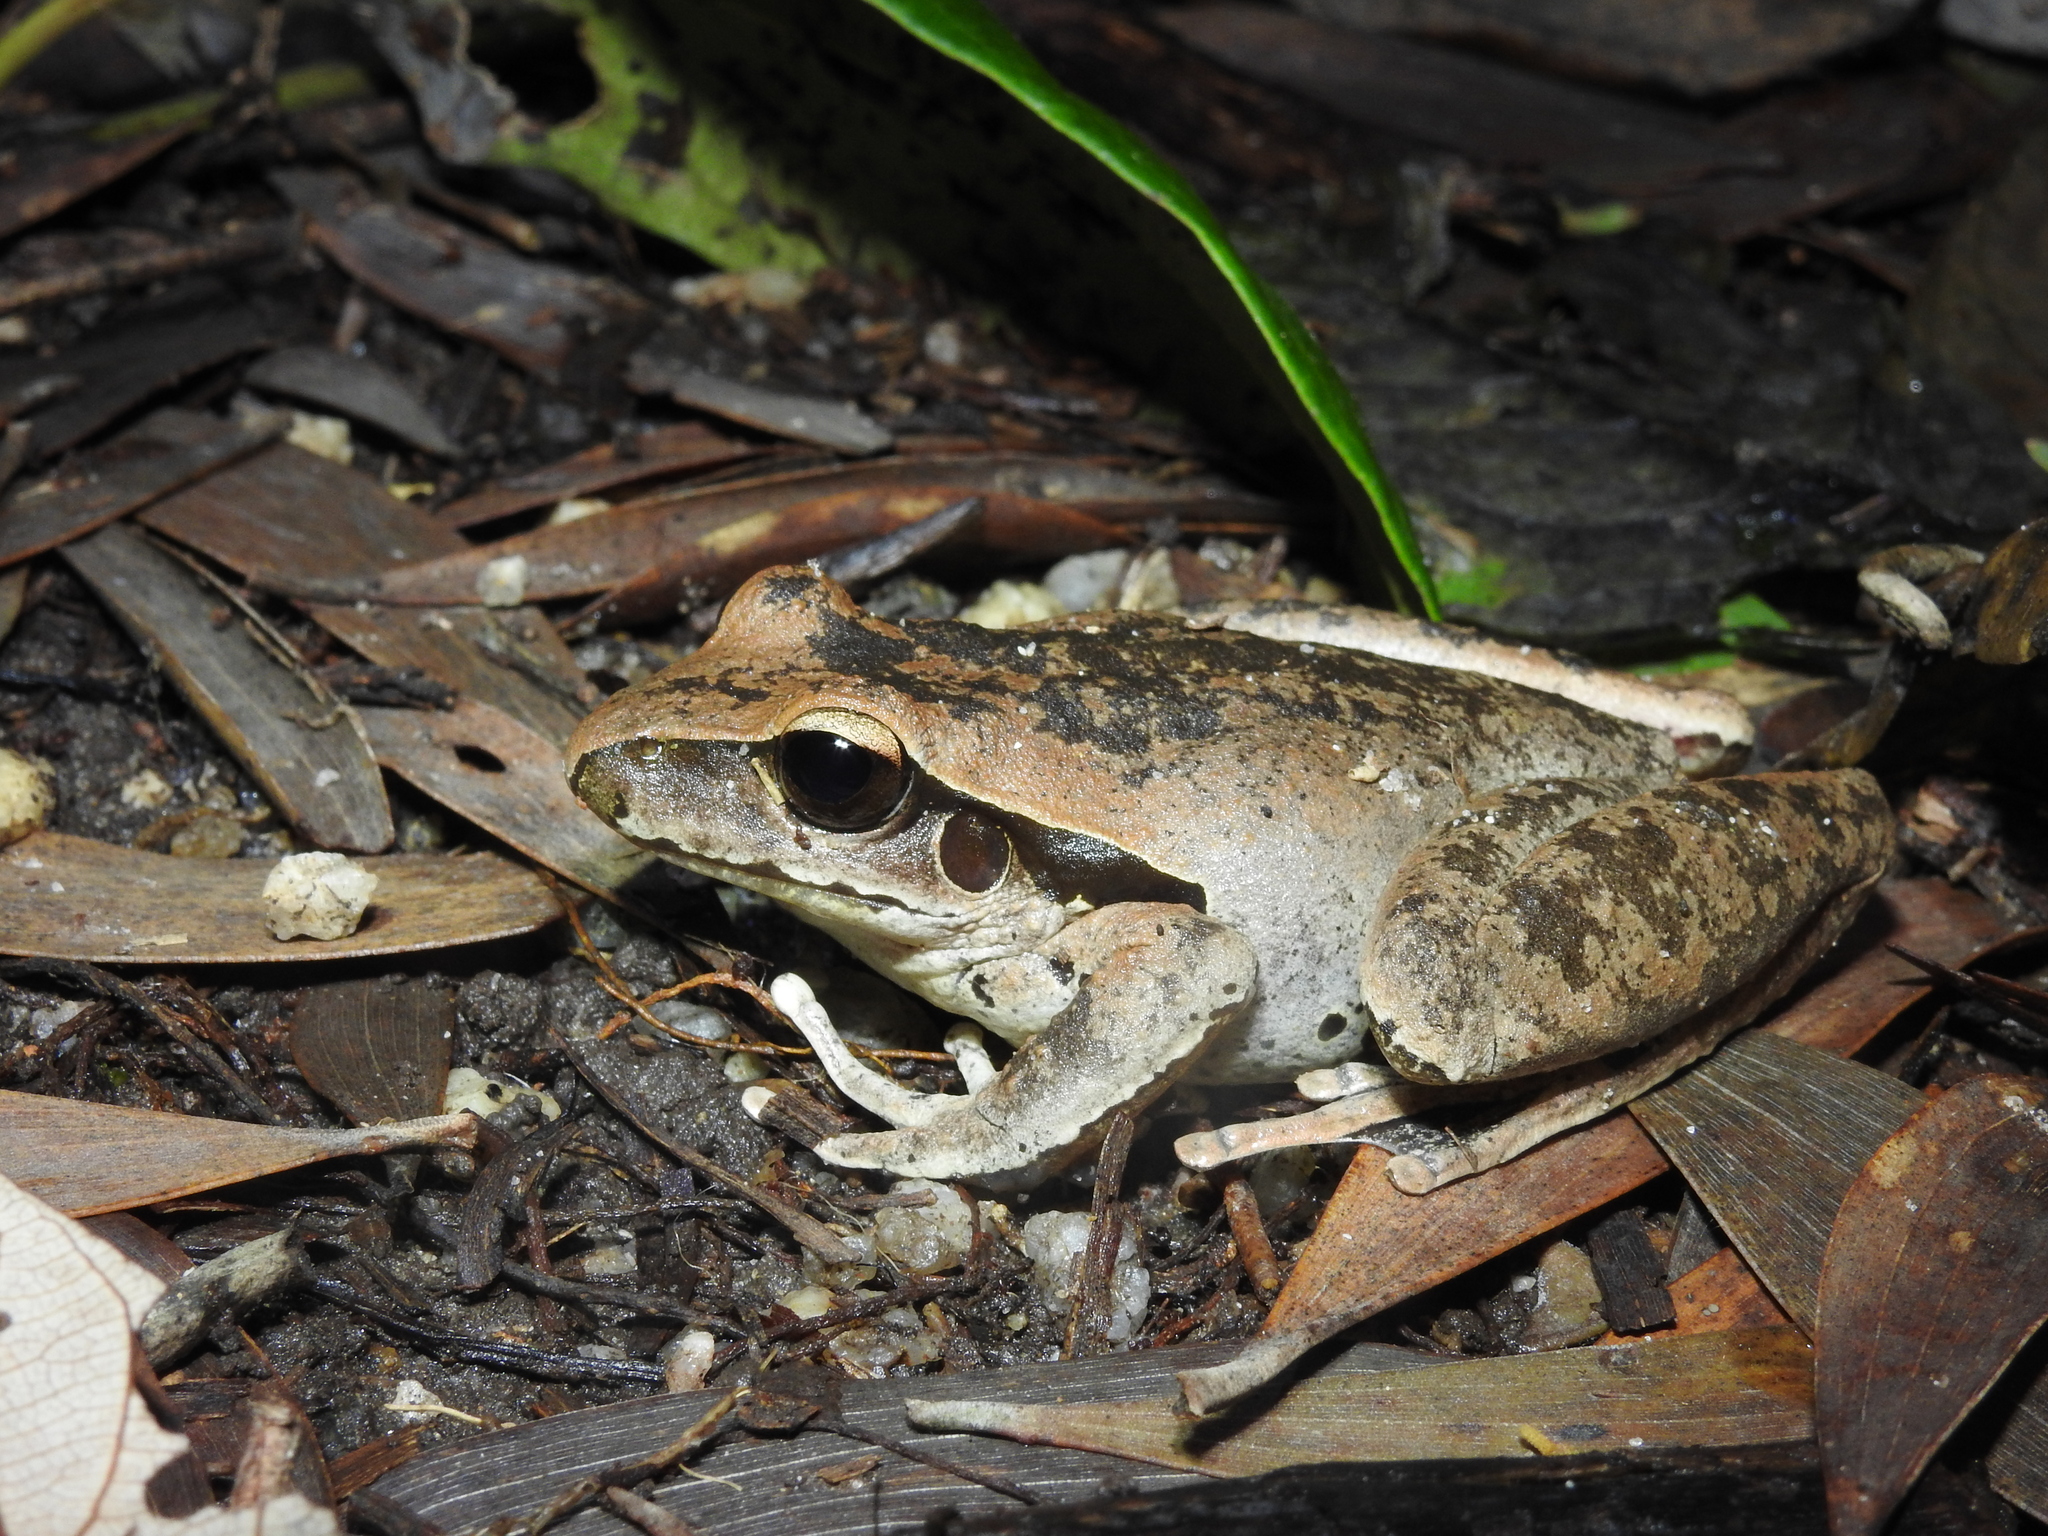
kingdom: Animalia
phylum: Chordata
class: Amphibia
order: Anura
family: Pelodryadidae
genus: Ranoidea
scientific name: Ranoidea jungguy
